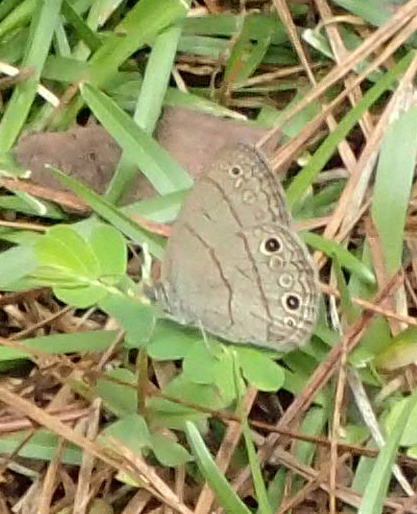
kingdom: Animalia
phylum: Arthropoda
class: Insecta
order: Lepidoptera
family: Nymphalidae
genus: Hermeuptychia
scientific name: Hermeuptychia hermes
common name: Hermes satyr
